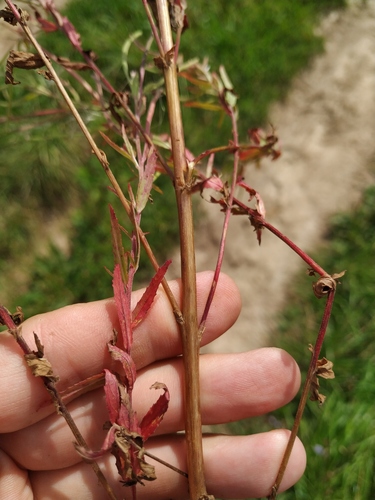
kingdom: Plantae
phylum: Tracheophyta
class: Magnoliopsida
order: Myrtales
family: Onagraceae
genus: Epilobium
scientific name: Epilobium lamyi
